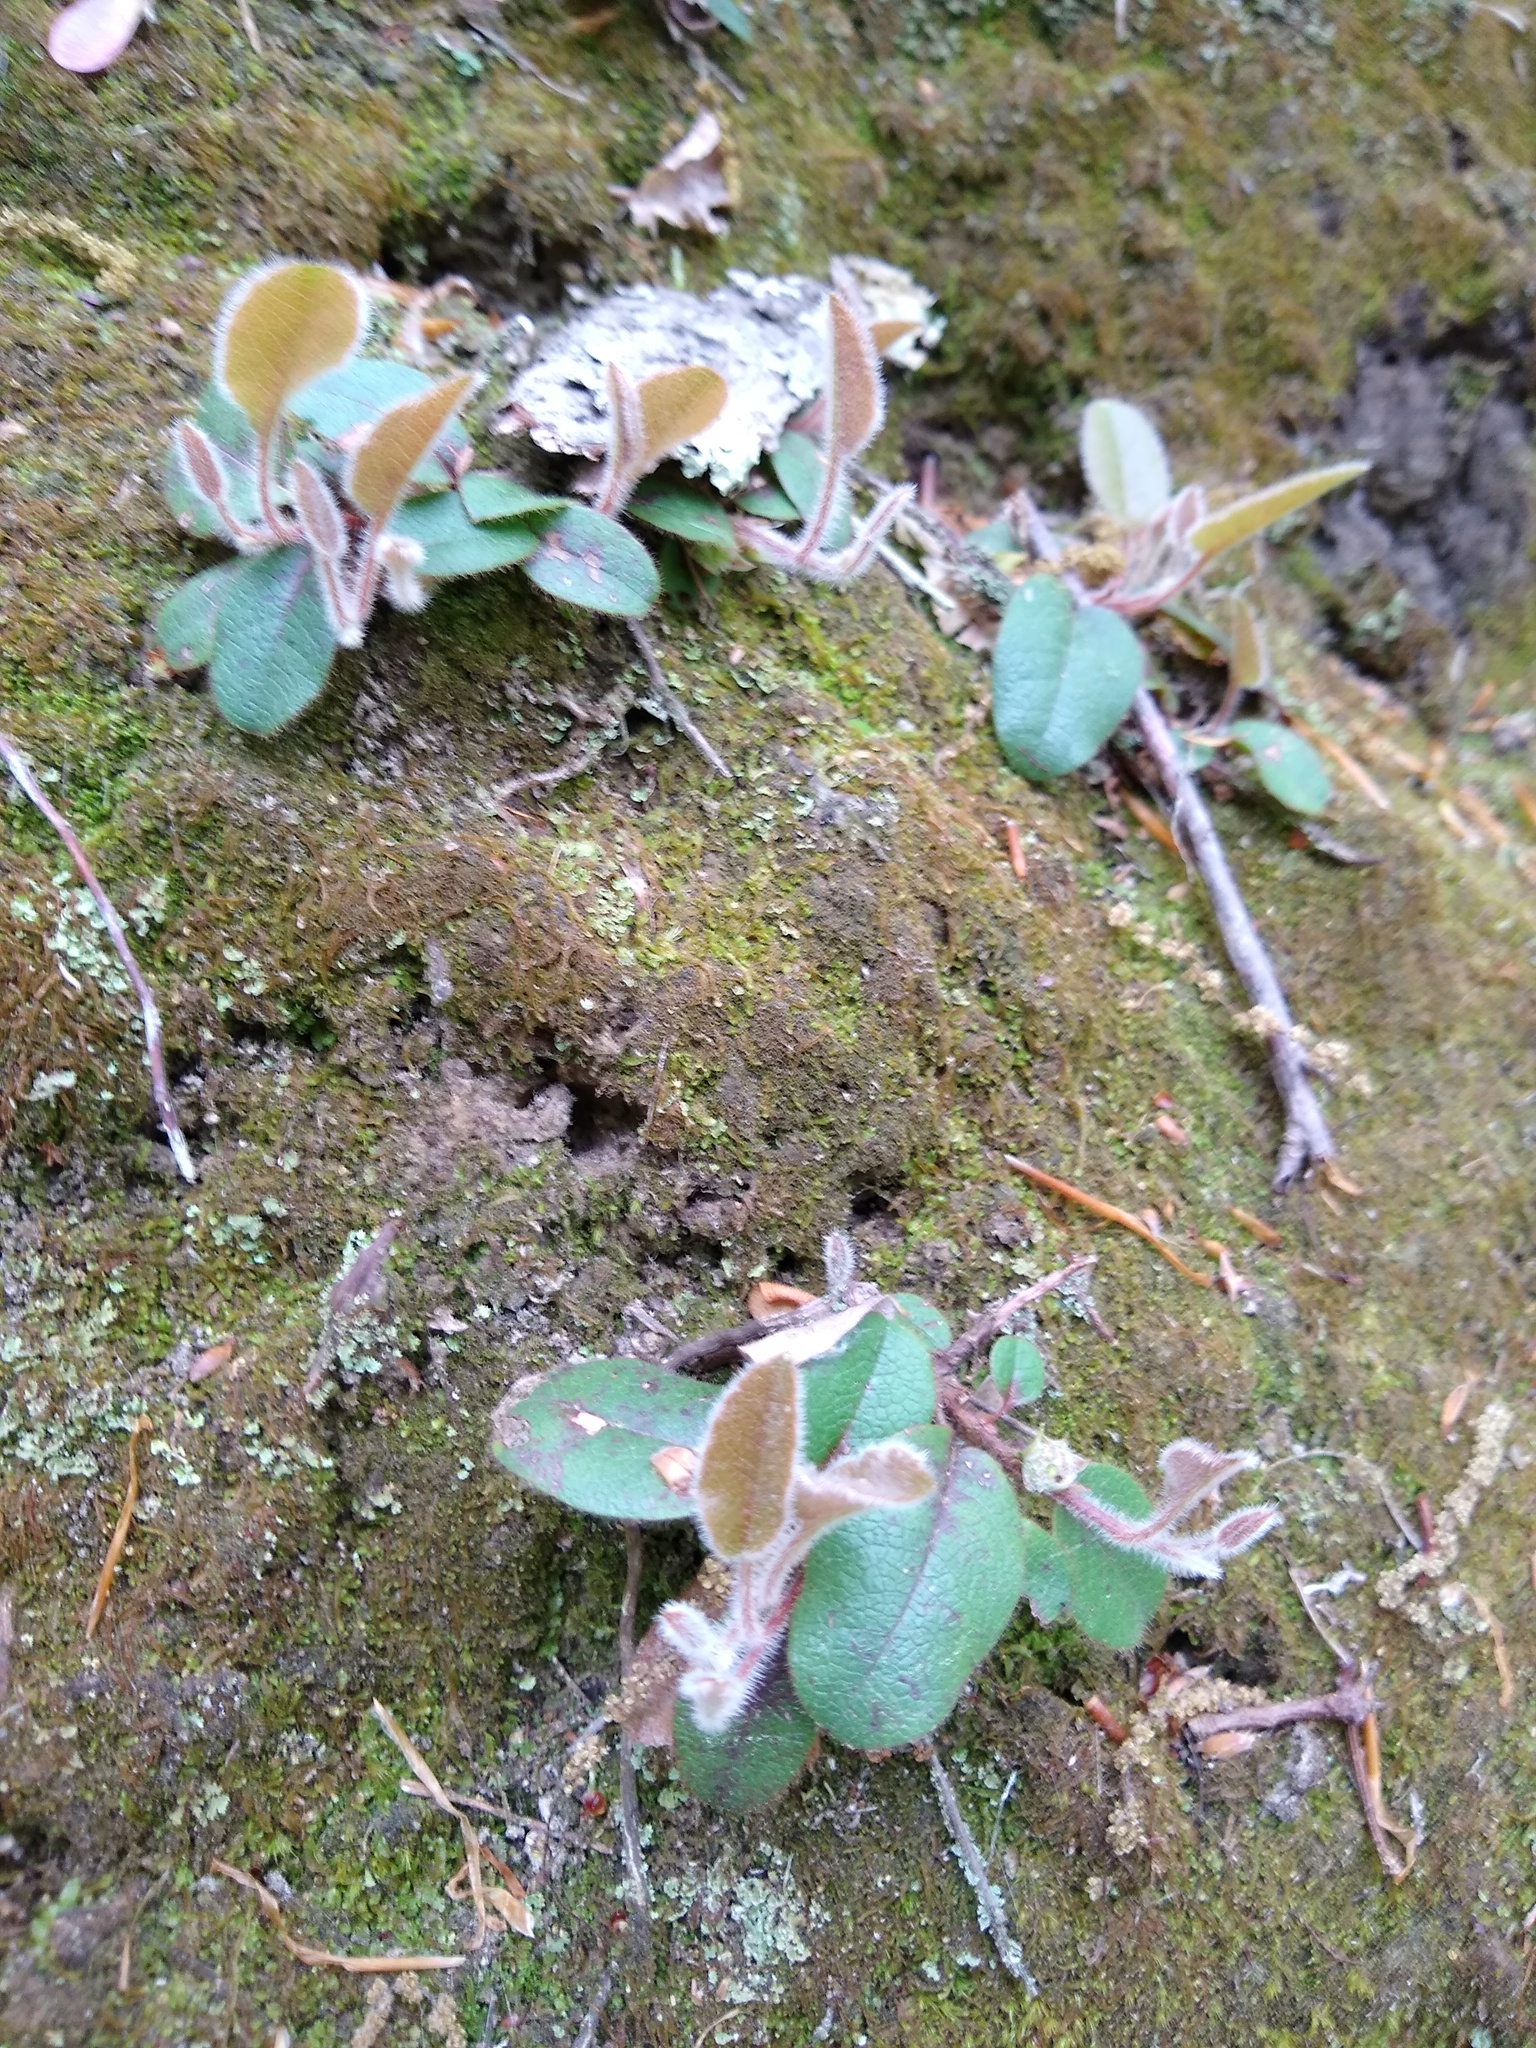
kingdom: Plantae
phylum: Tracheophyta
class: Magnoliopsida
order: Ericales
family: Ericaceae
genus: Epigaea
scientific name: Epigaea repens
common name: Gravelroot
